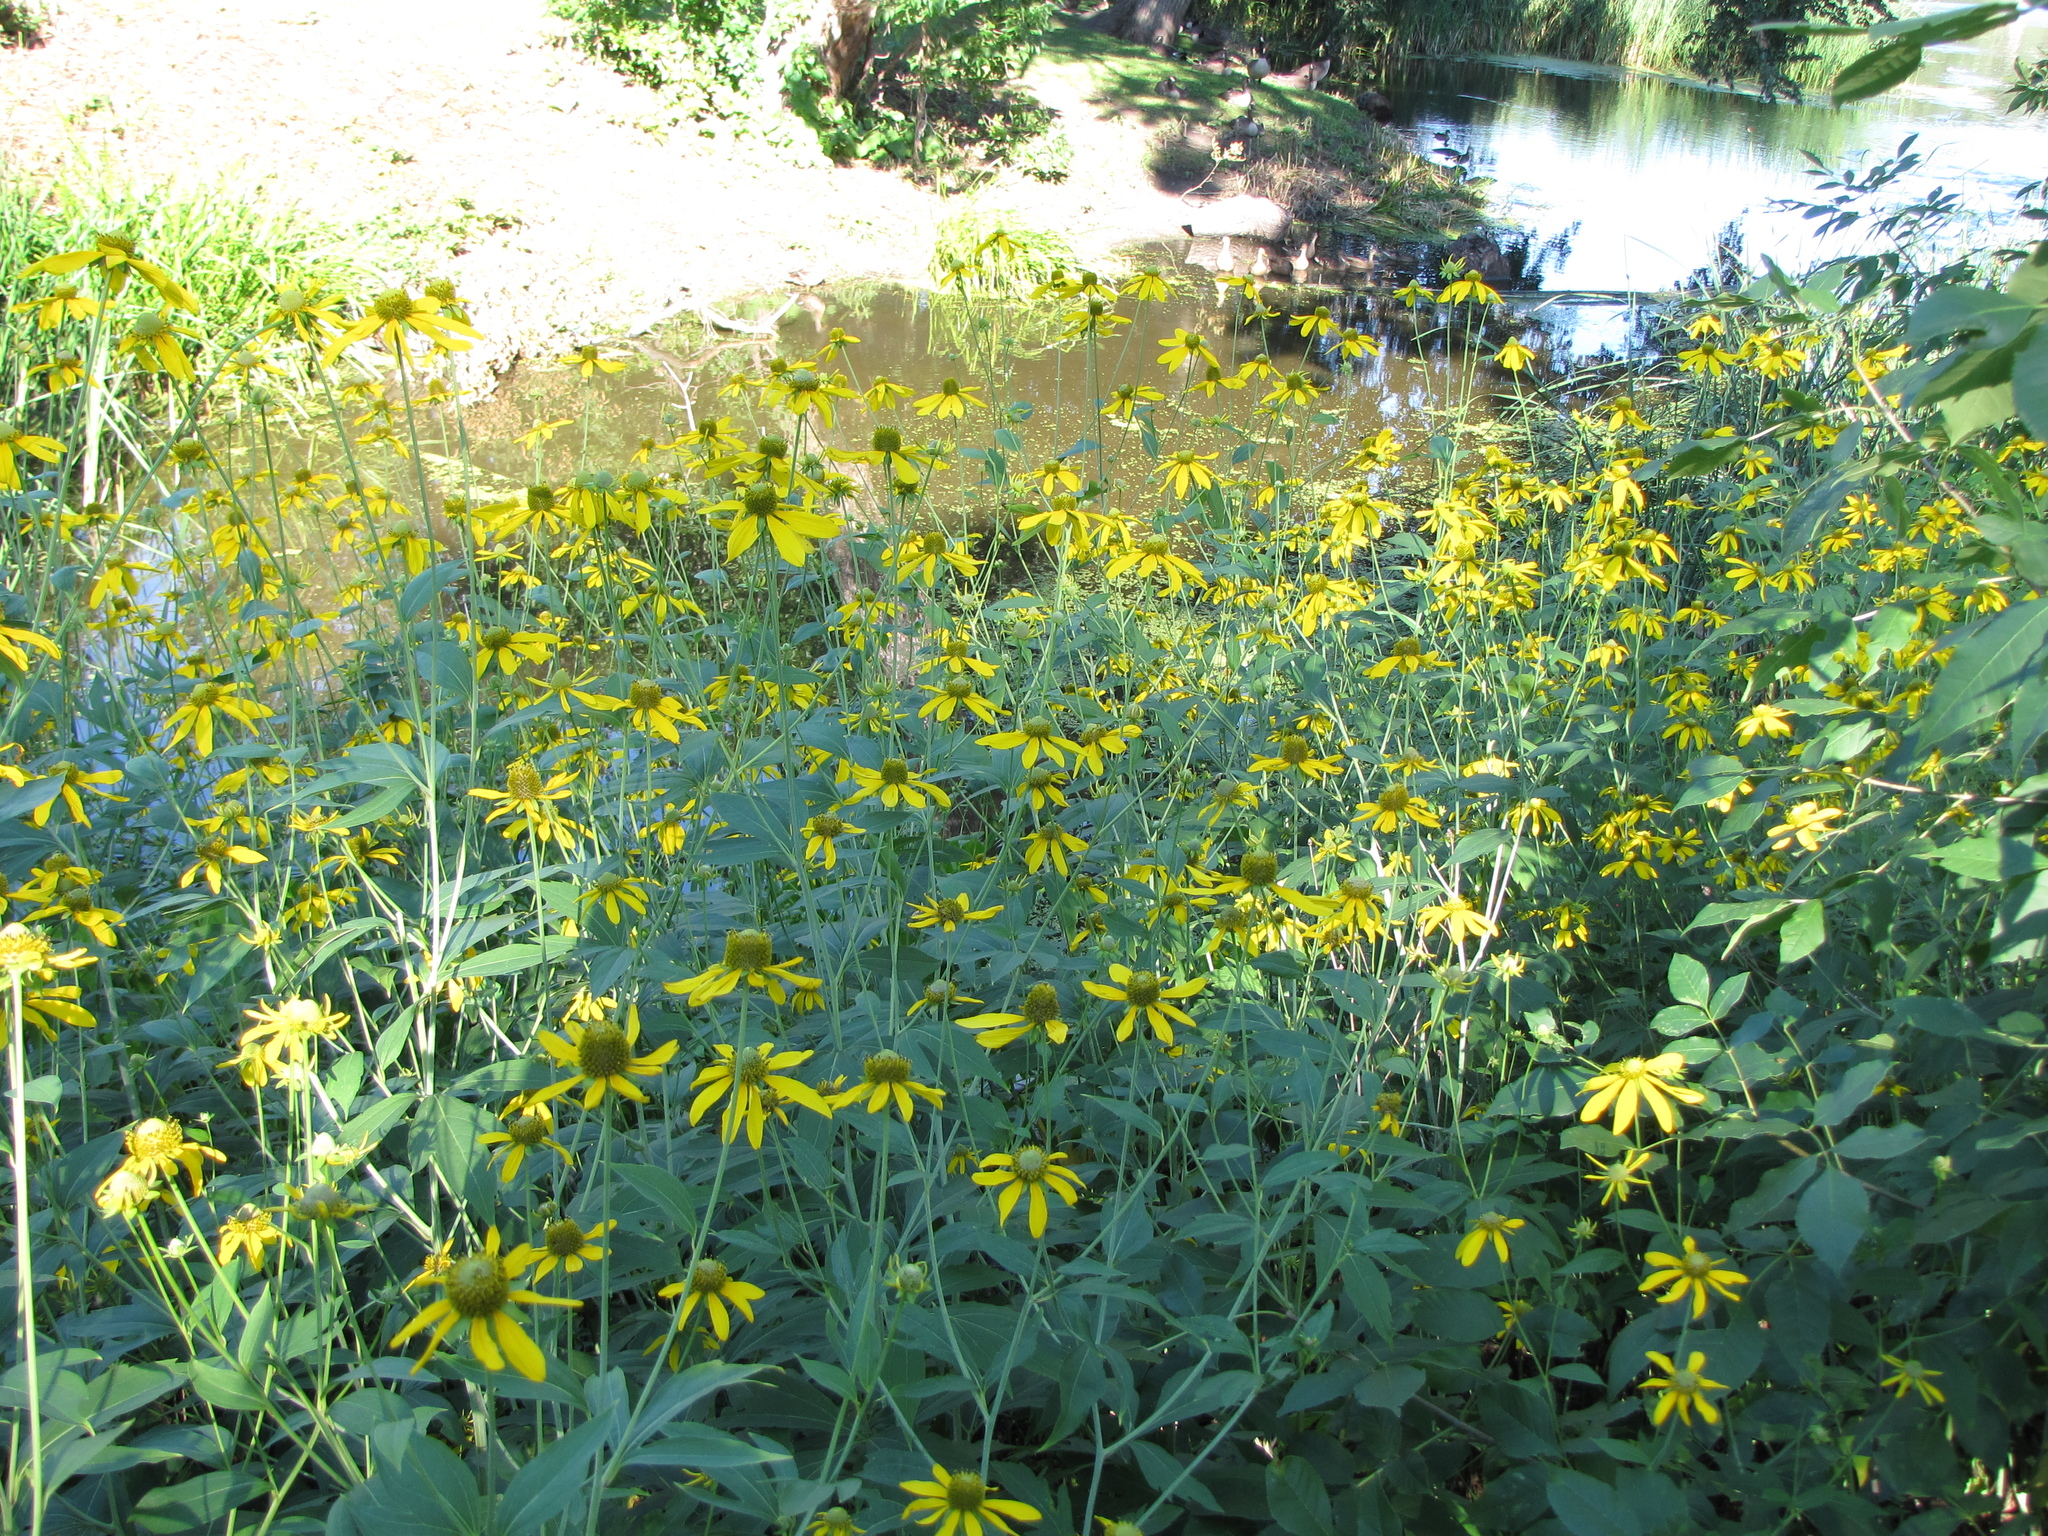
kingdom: Plantae
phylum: Tracheophyta
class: Magnoliopsida
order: Asterales
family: Asteraceae
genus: Rudbeckia
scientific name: Rudbeckia laciniata
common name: Coneflower
